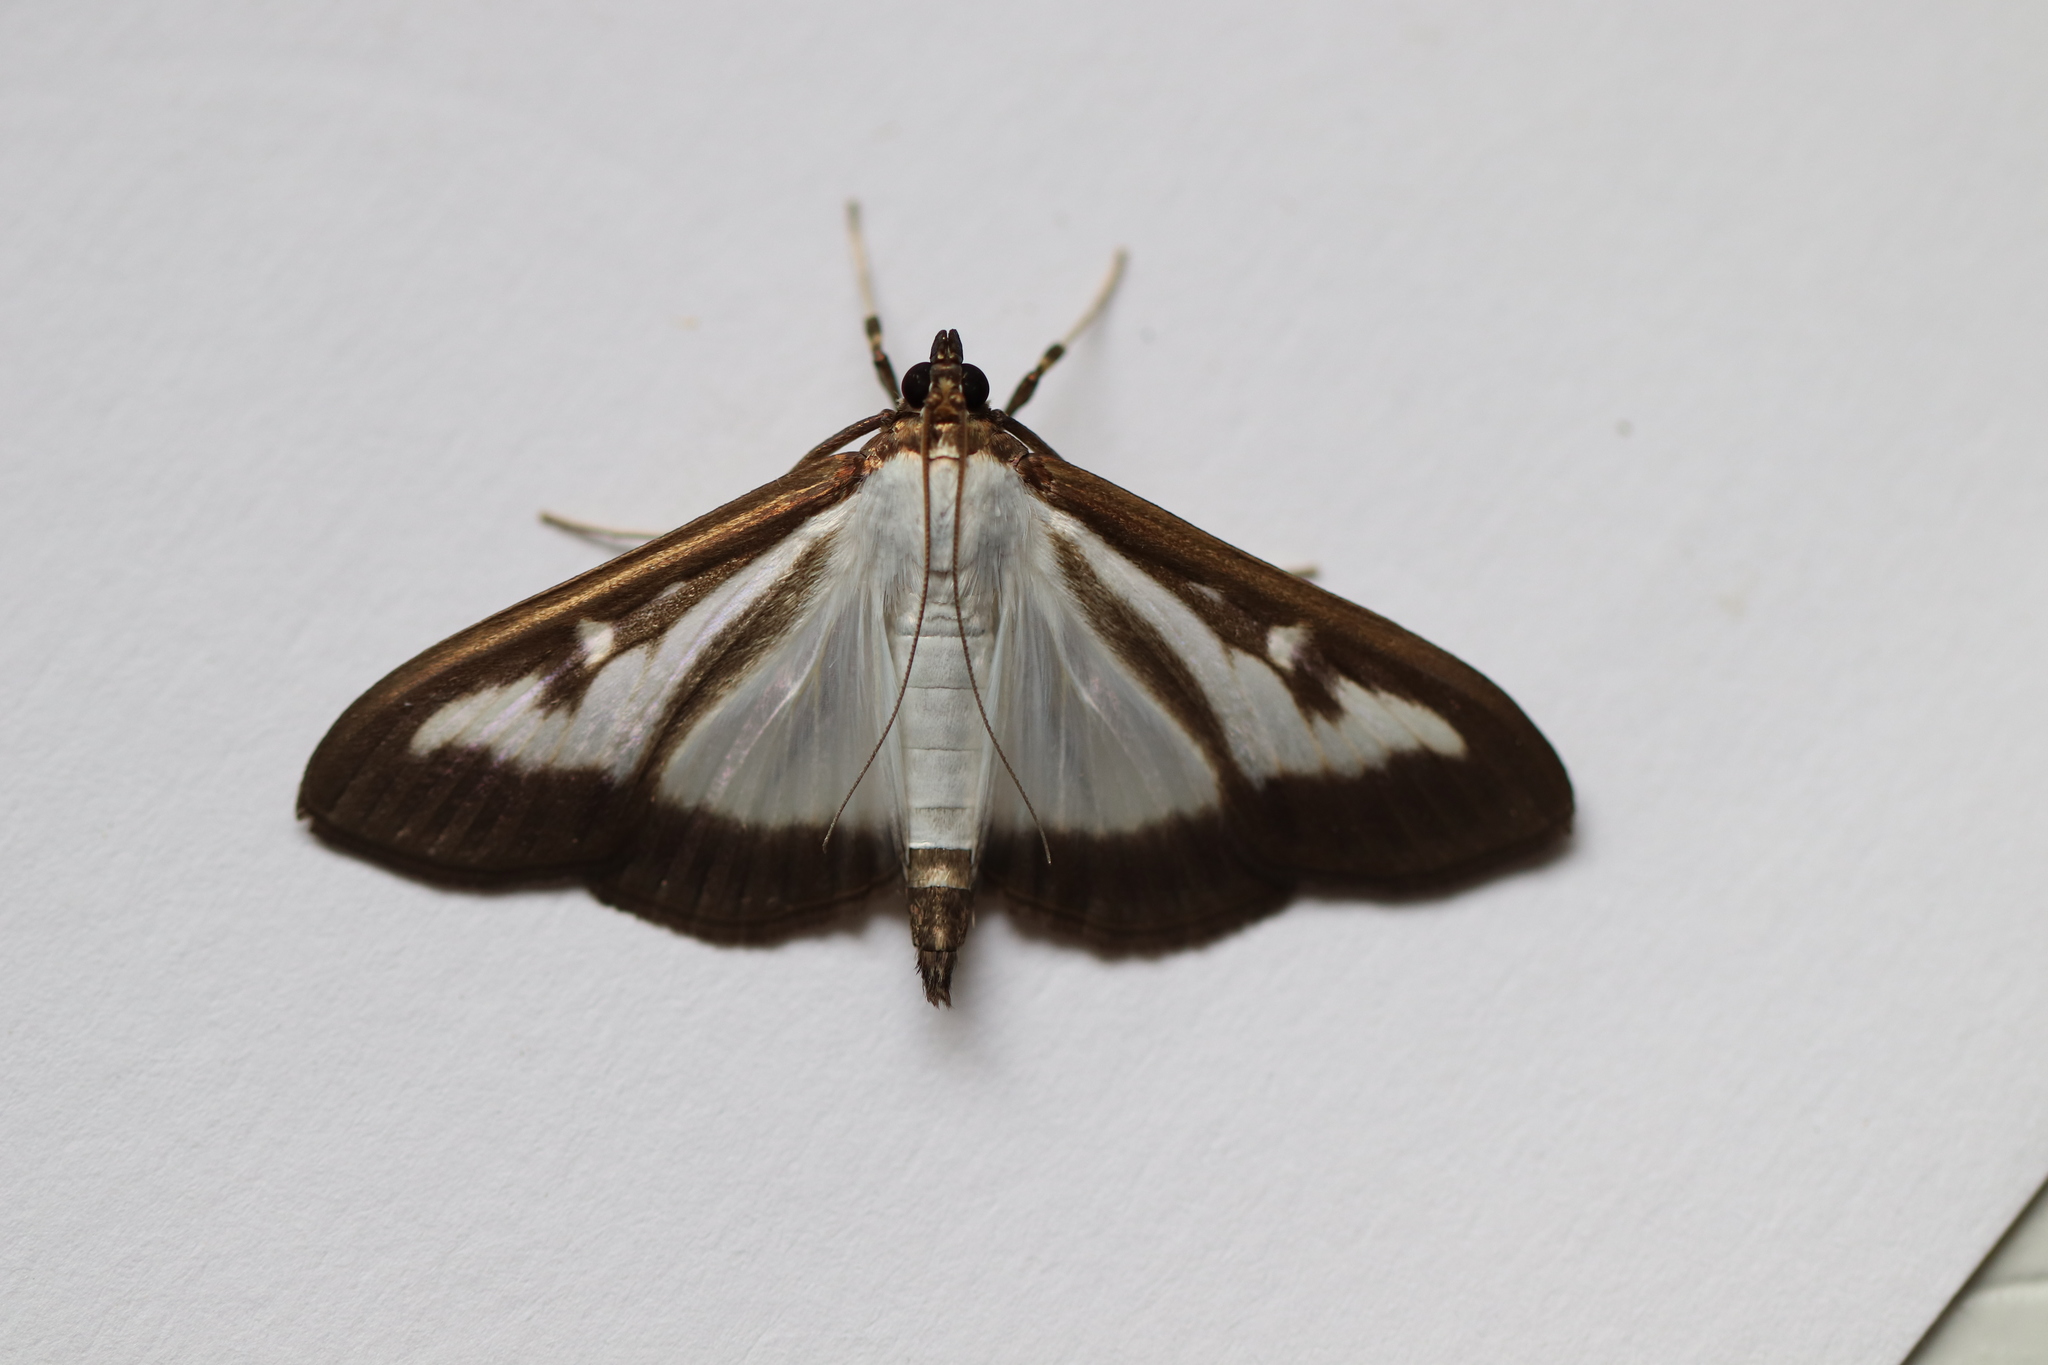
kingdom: Animalia
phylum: Arthropoda
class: Insecta
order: Lepidoptera
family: Crambidae
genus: Cydalima
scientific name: Cydalima perspectalis
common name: Box tree moth
